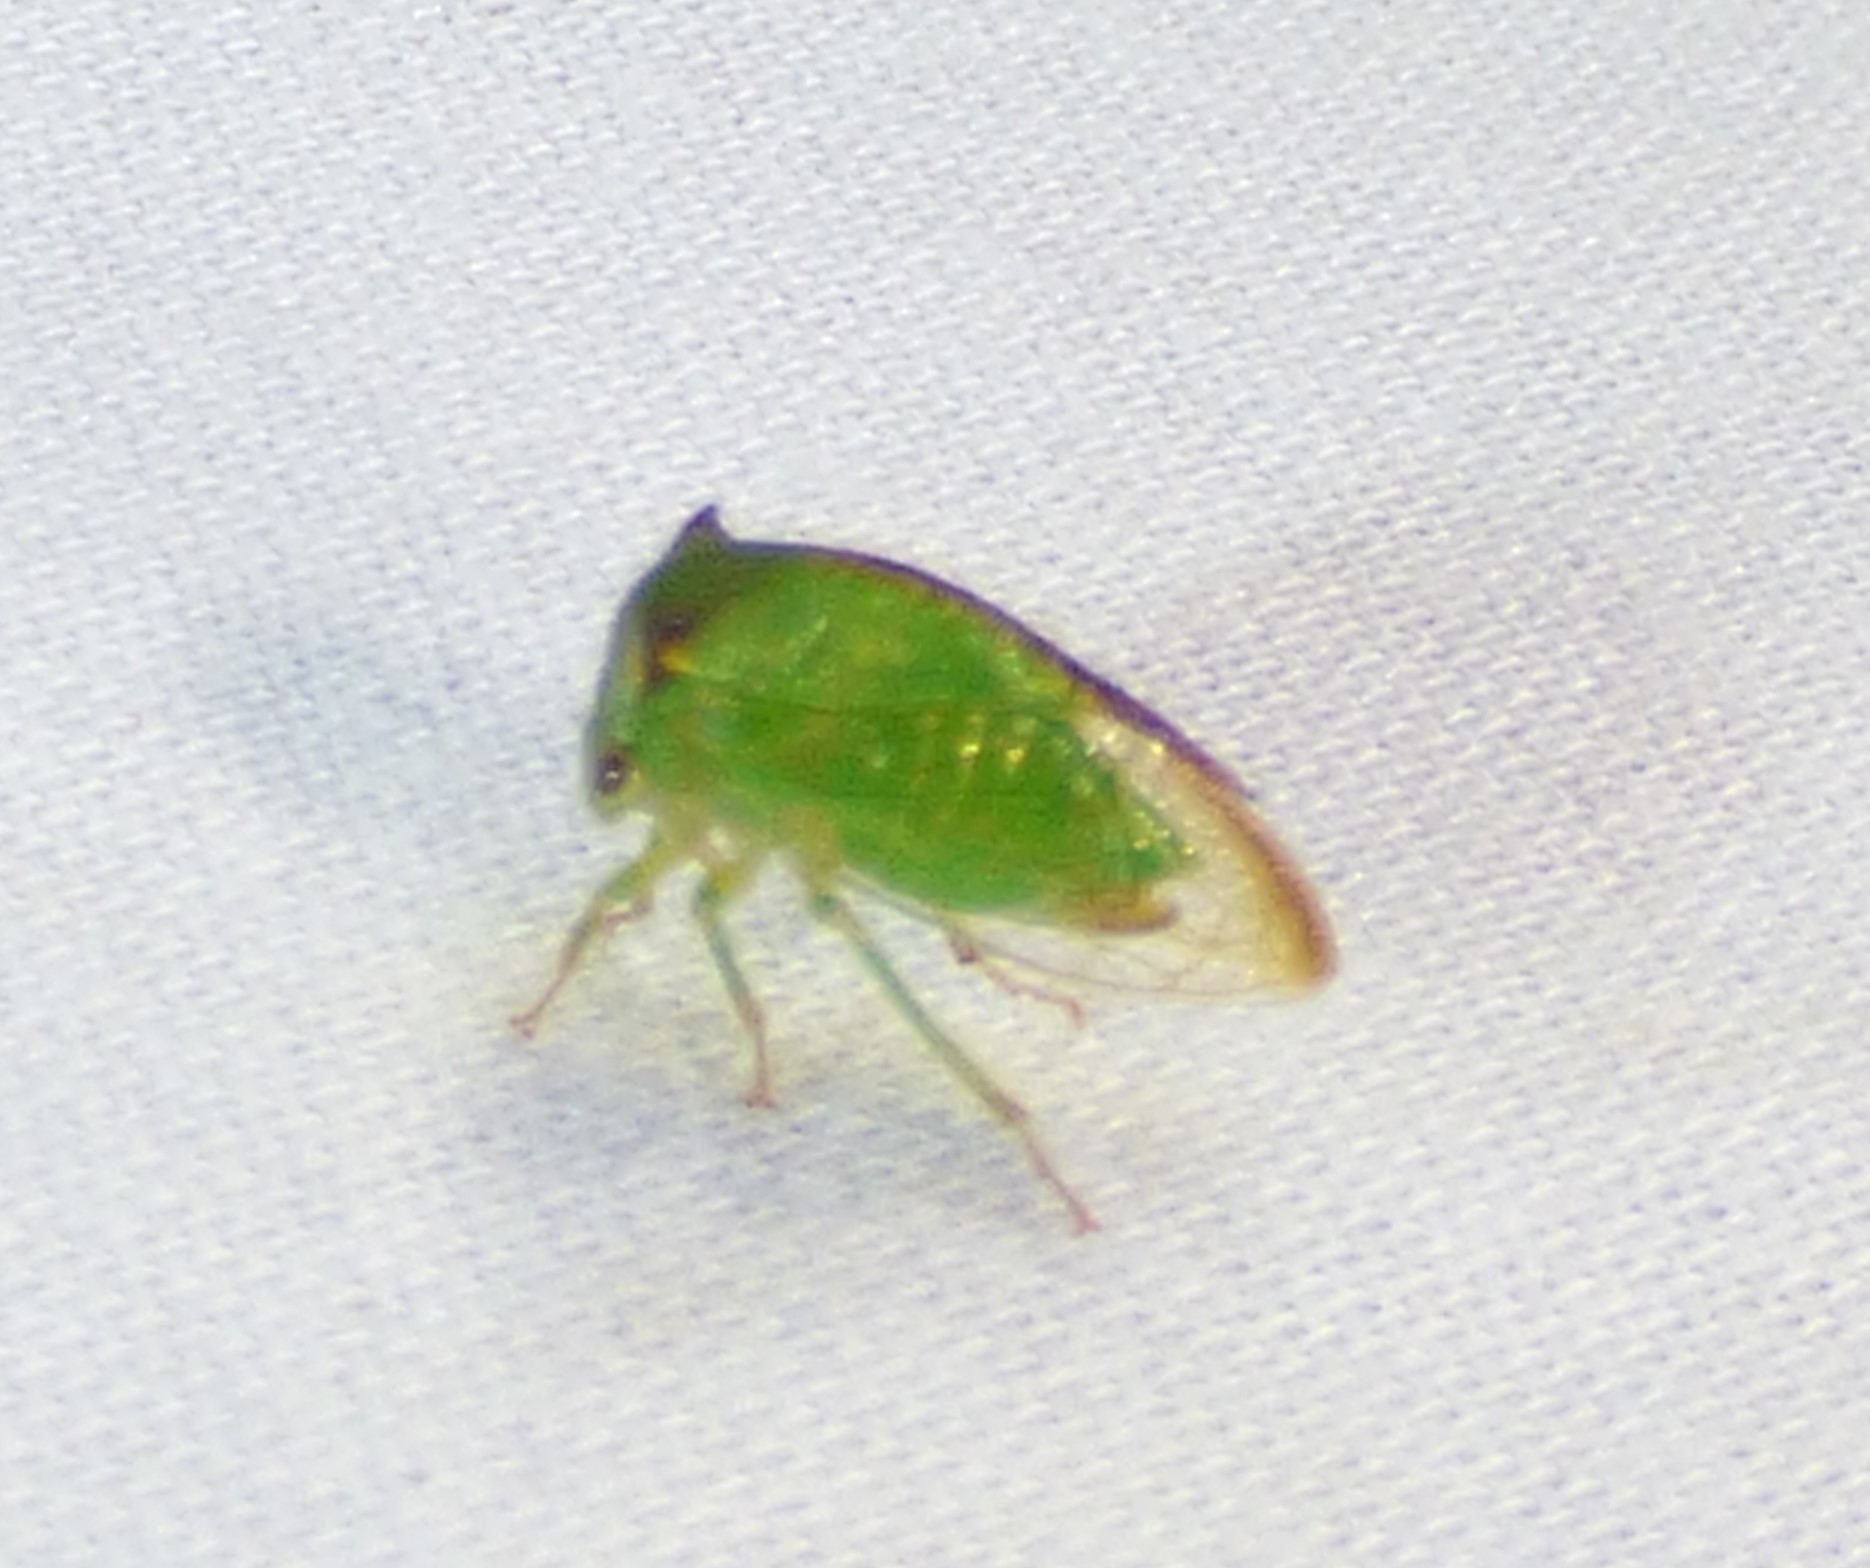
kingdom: Animalia
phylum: Arthropoda
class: Insecta
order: Hemiptera
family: Membracidae
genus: Stictocephala
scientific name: Stictocephala militaris
